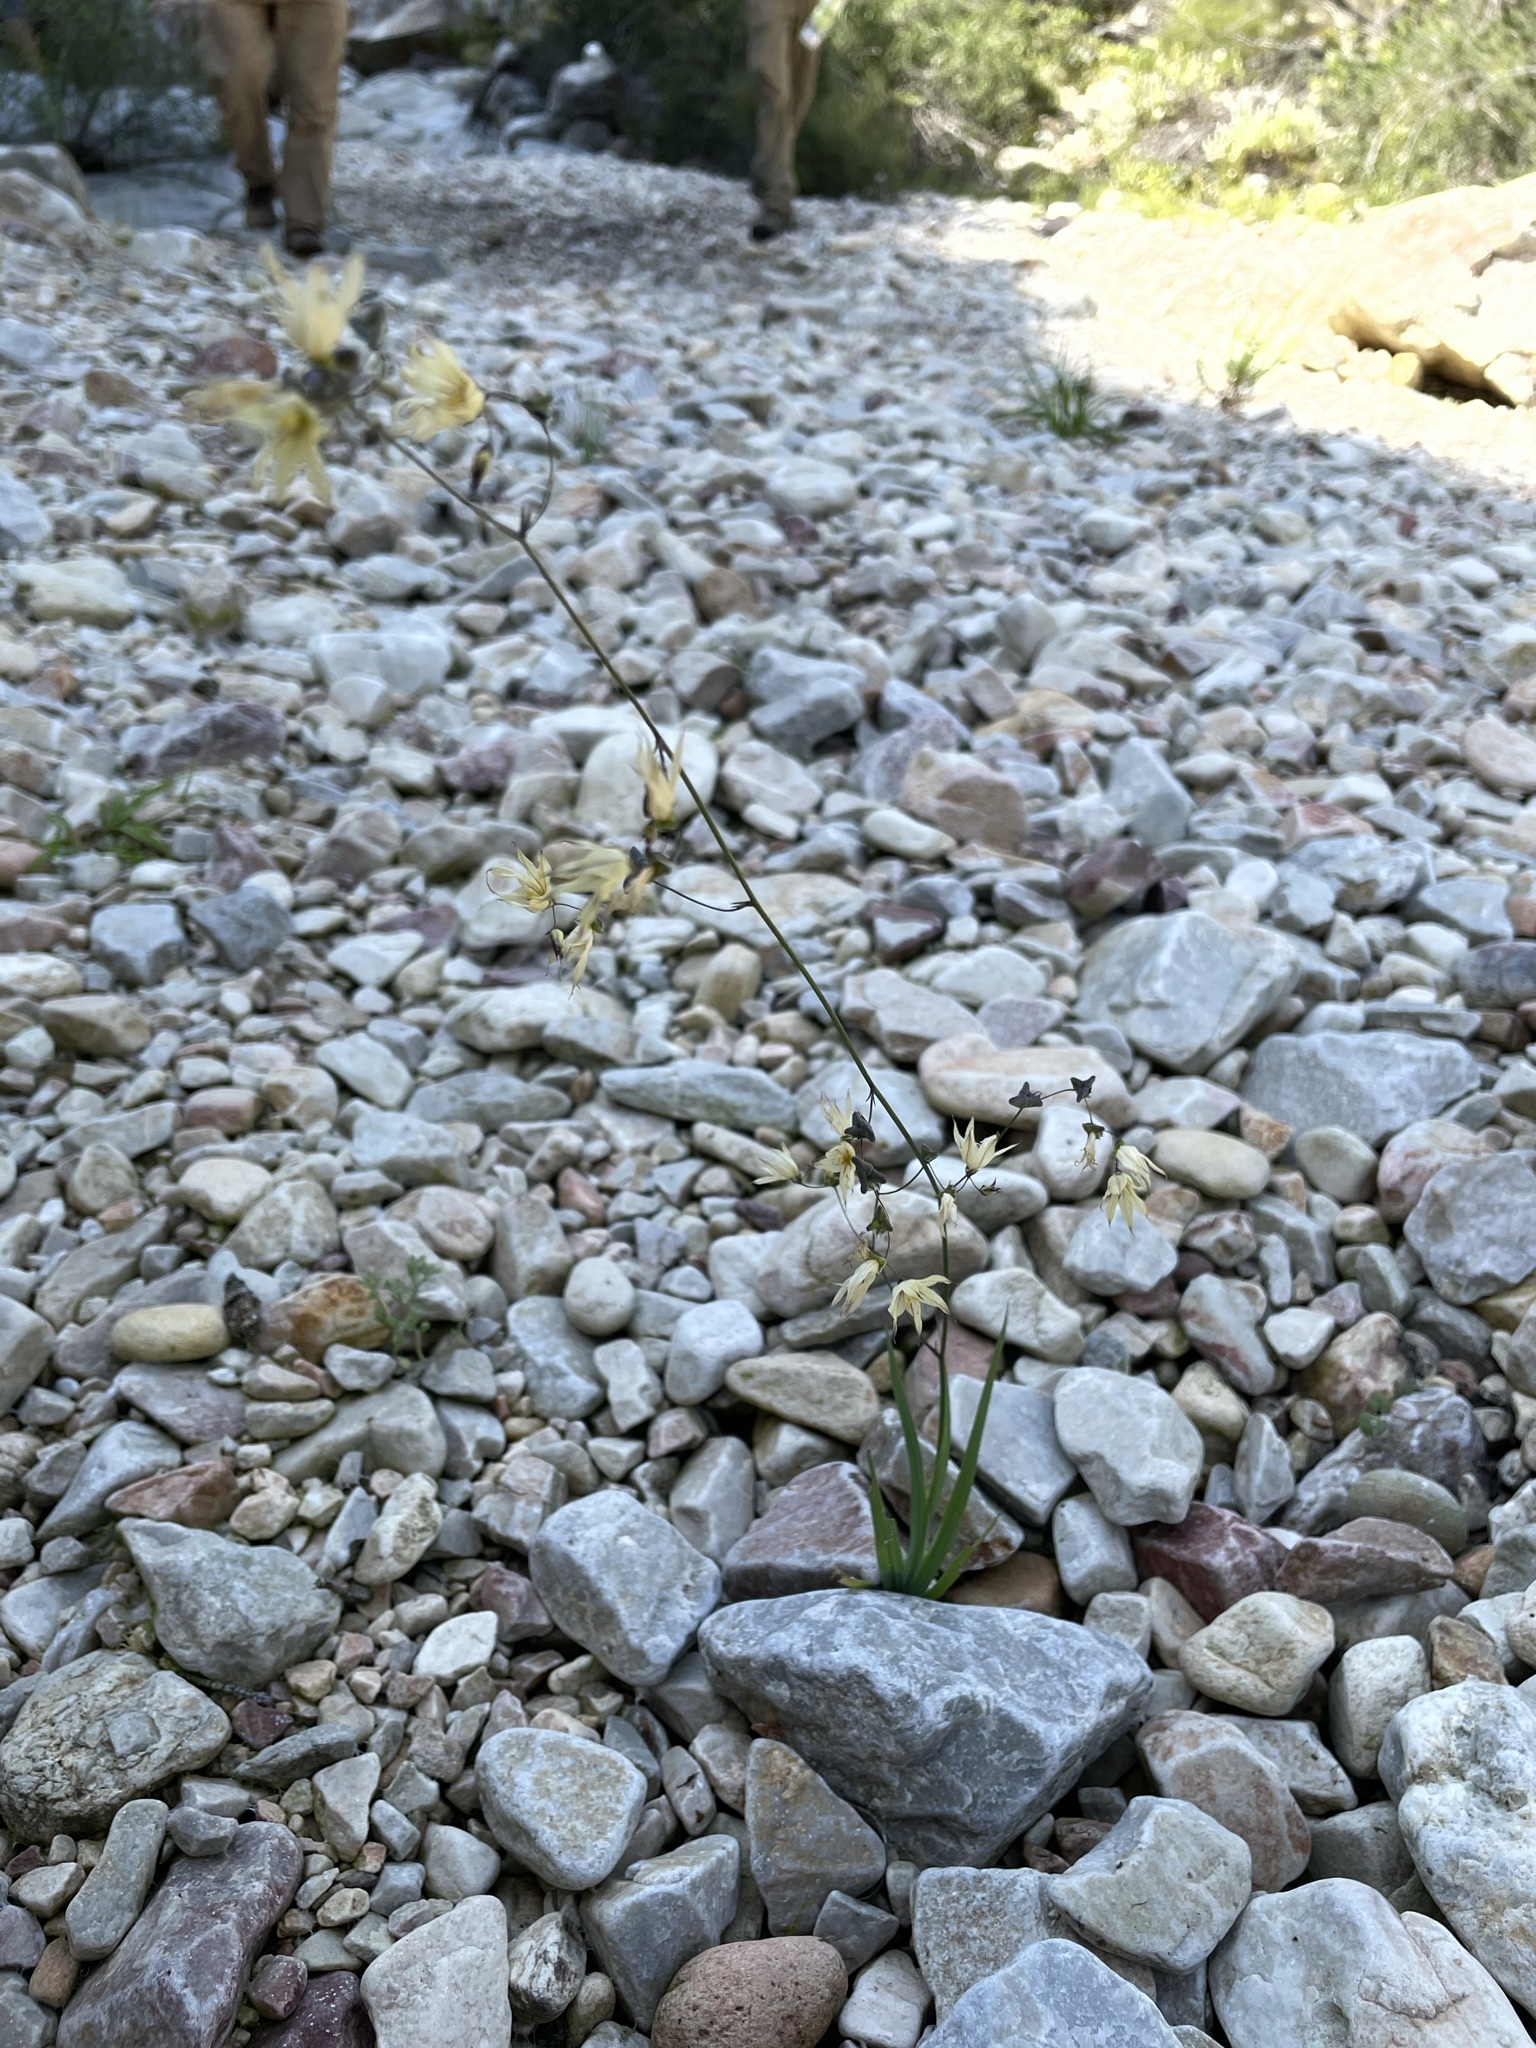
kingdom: Plantae
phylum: Tracheophyta
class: Liliopsida
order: Asparagales
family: Iridaceae
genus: Melasphaerula
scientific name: Melasphaerula graminea
